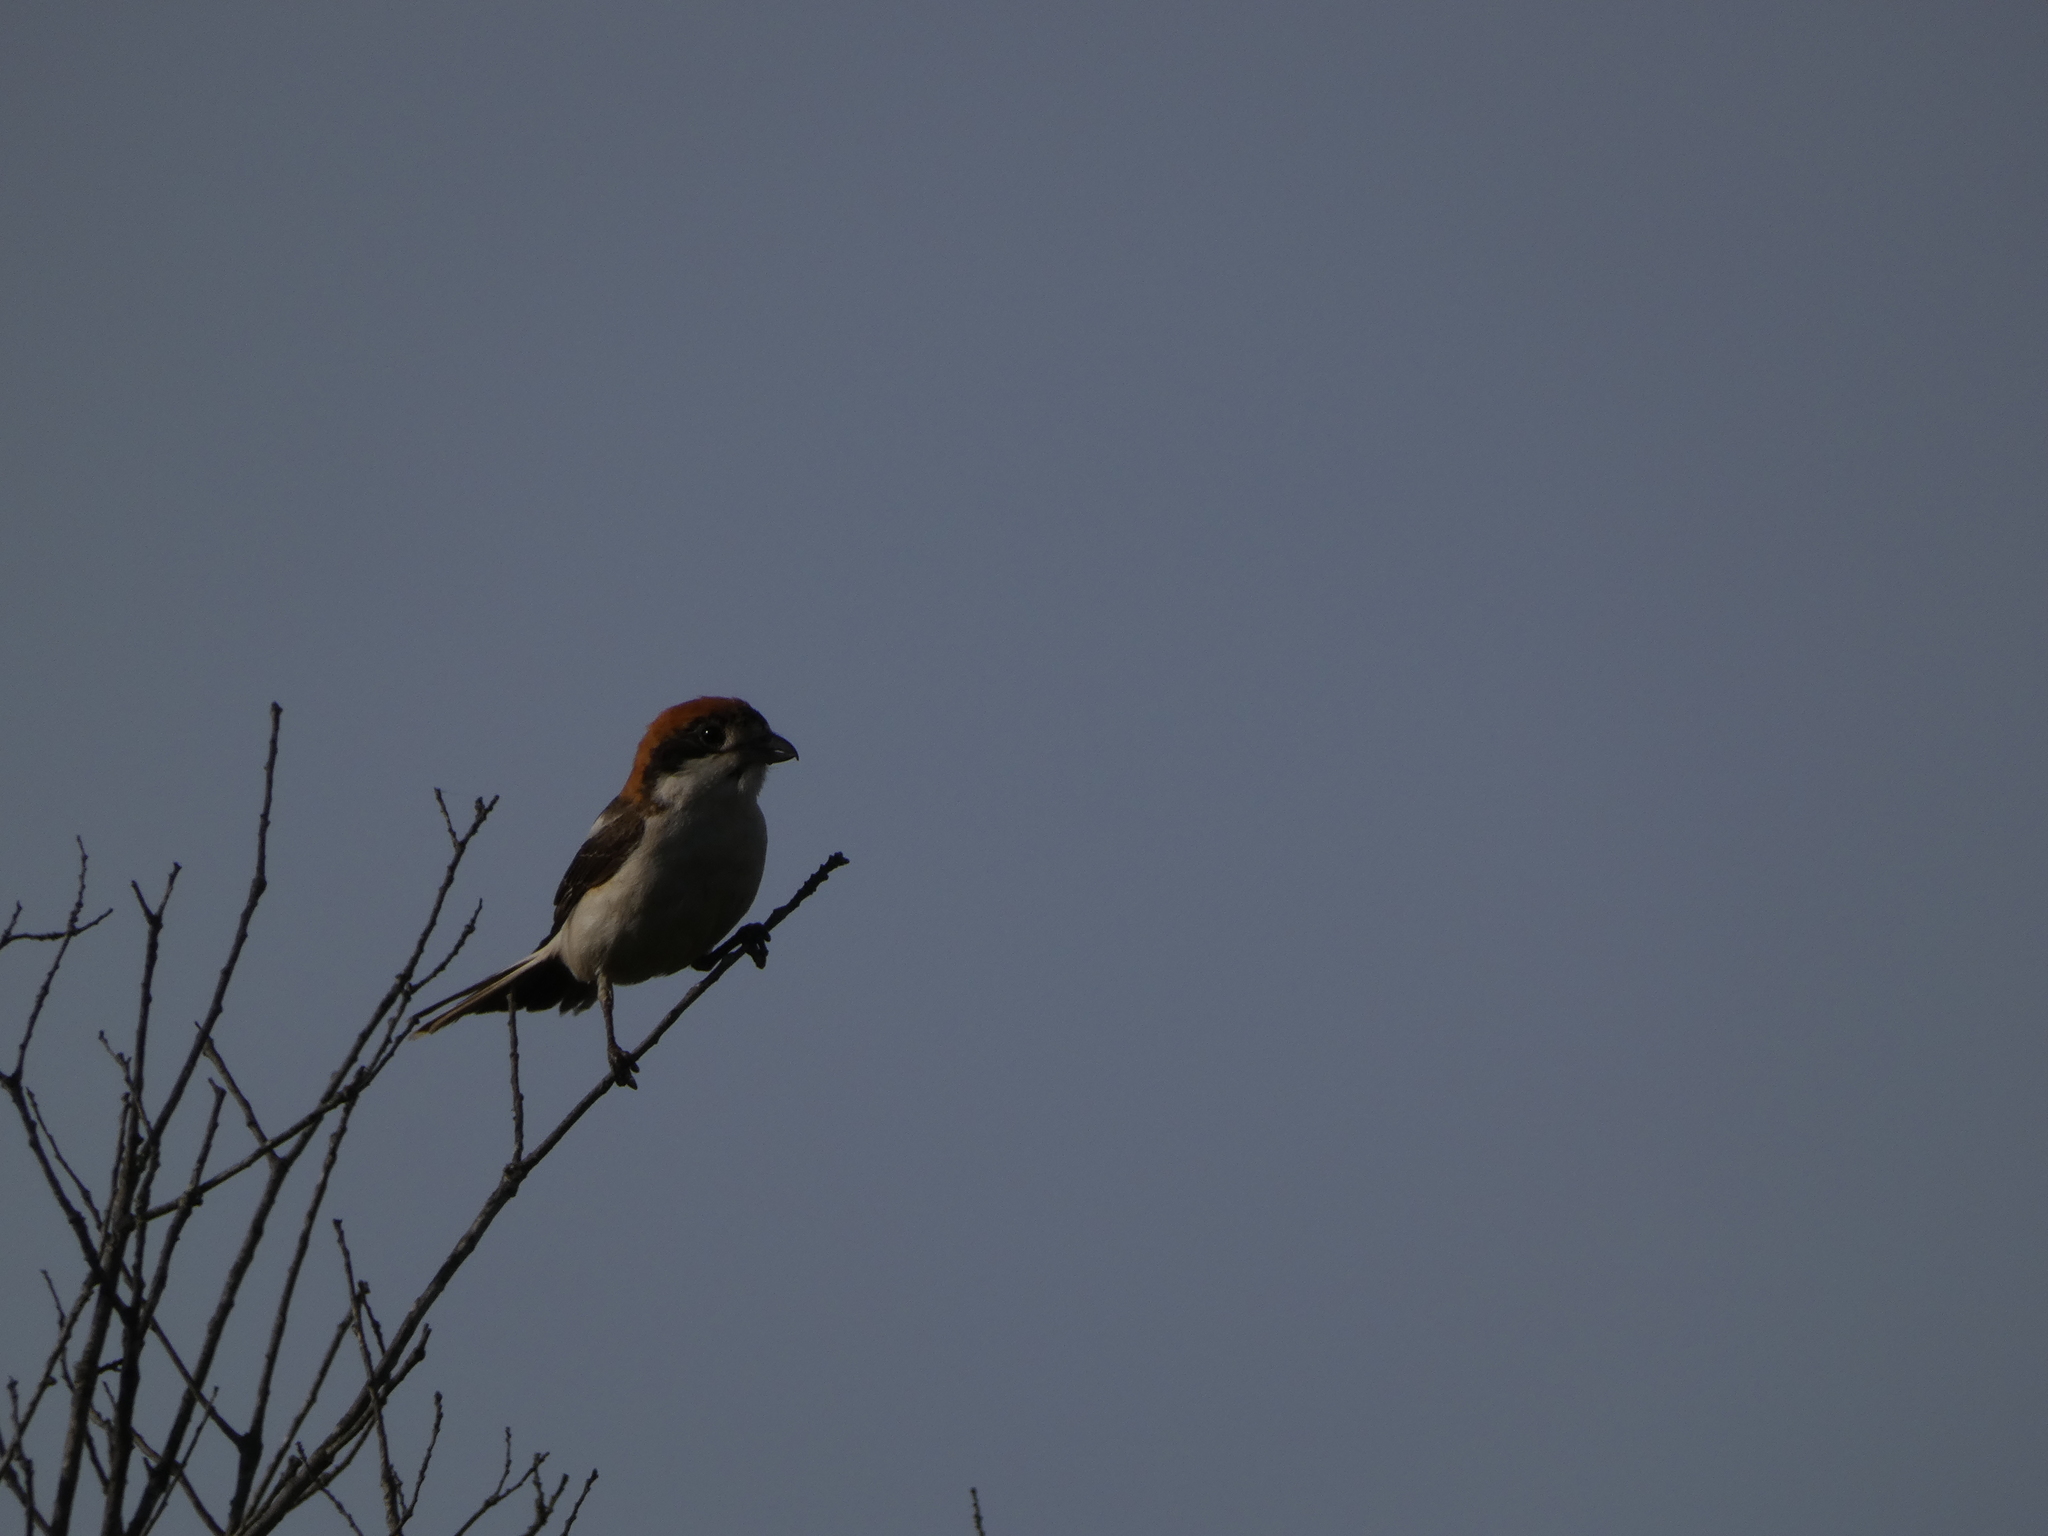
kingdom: Animalia
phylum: Chordata
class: Aves
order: Passeriformes
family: Laniidae
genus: Lanius
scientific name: Lanius senator
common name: Woodchat shrike
